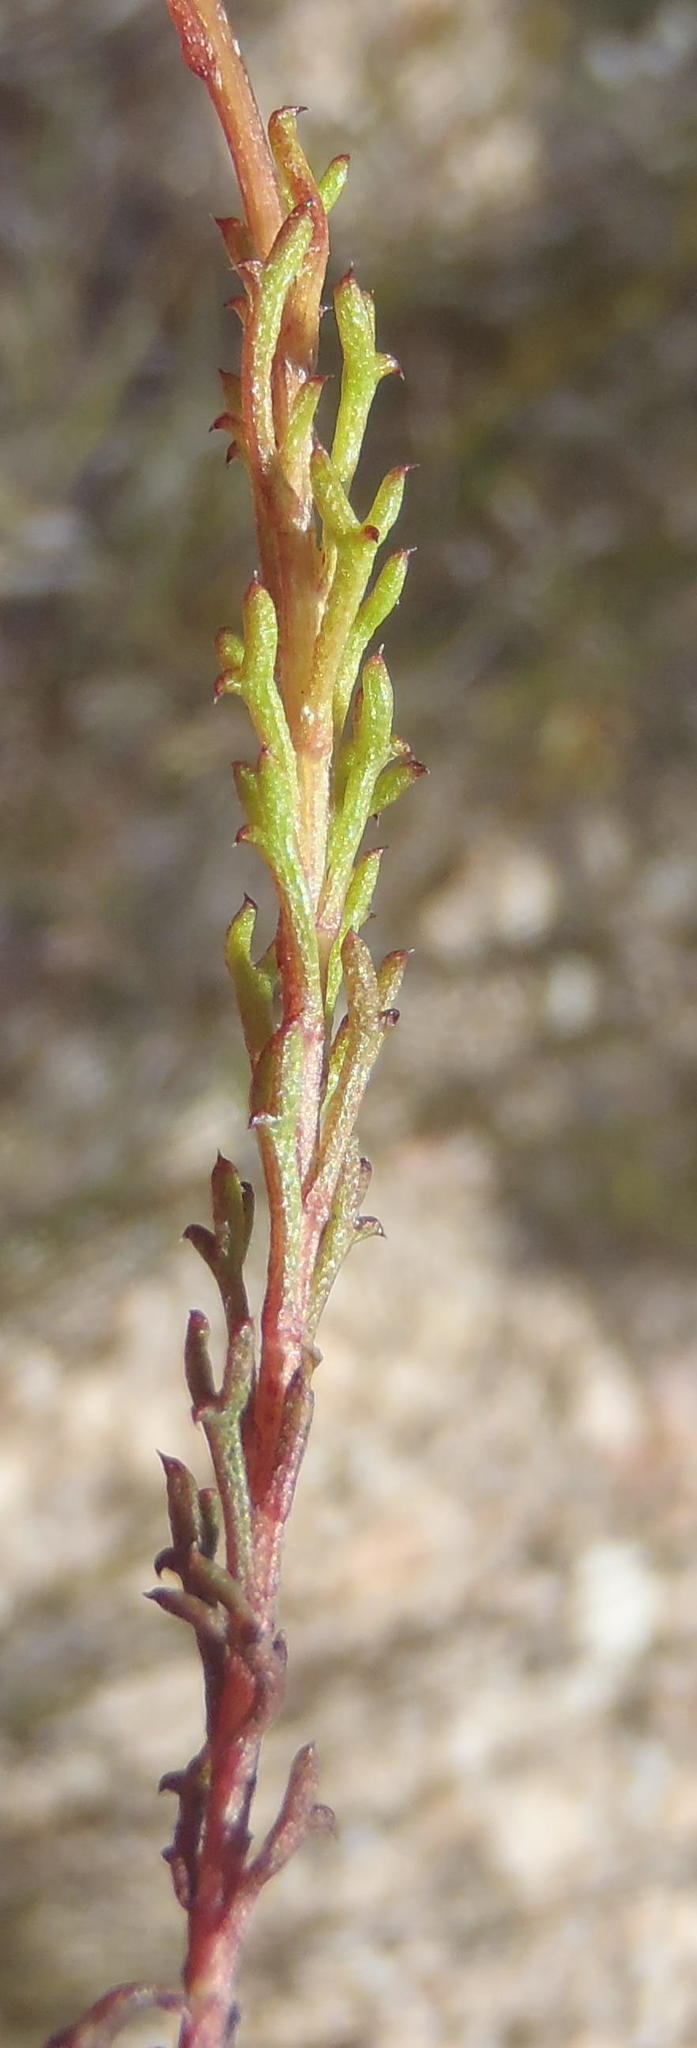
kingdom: Plantae
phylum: Tracheophyta
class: Magnoliopsida
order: Asterales
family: Asteraceae
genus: Ursinia
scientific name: Ursinia trifida
